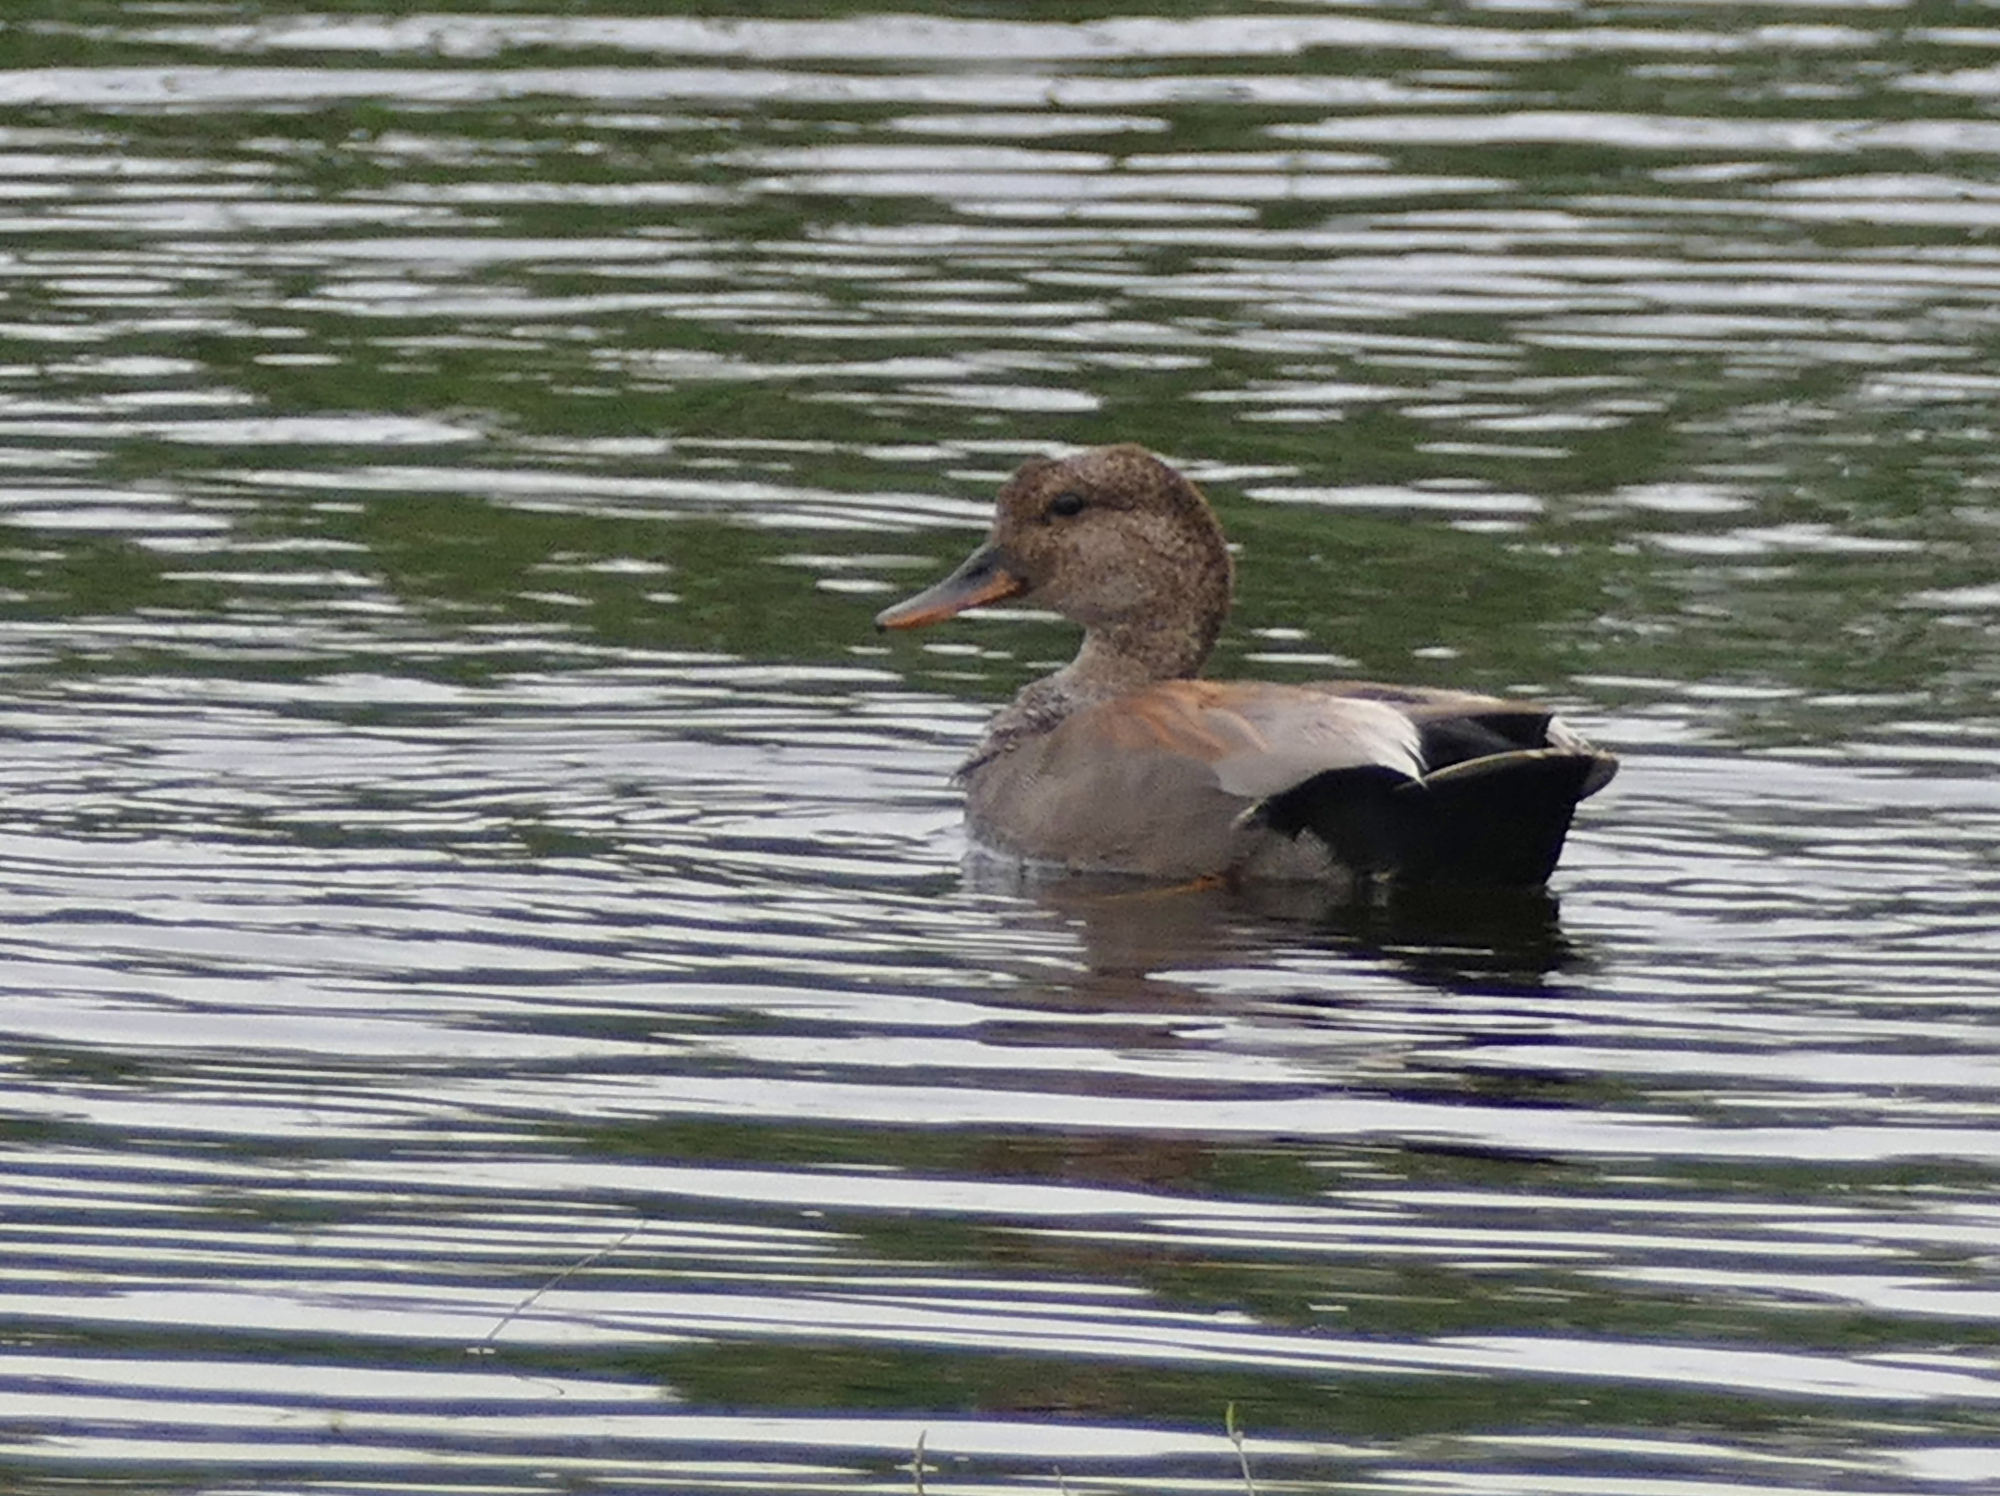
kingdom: Animalia
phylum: Chordata
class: Aves
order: Anseriformes
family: Anatidae
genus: Mareca
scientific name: Mareca strepera
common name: Gadwall
